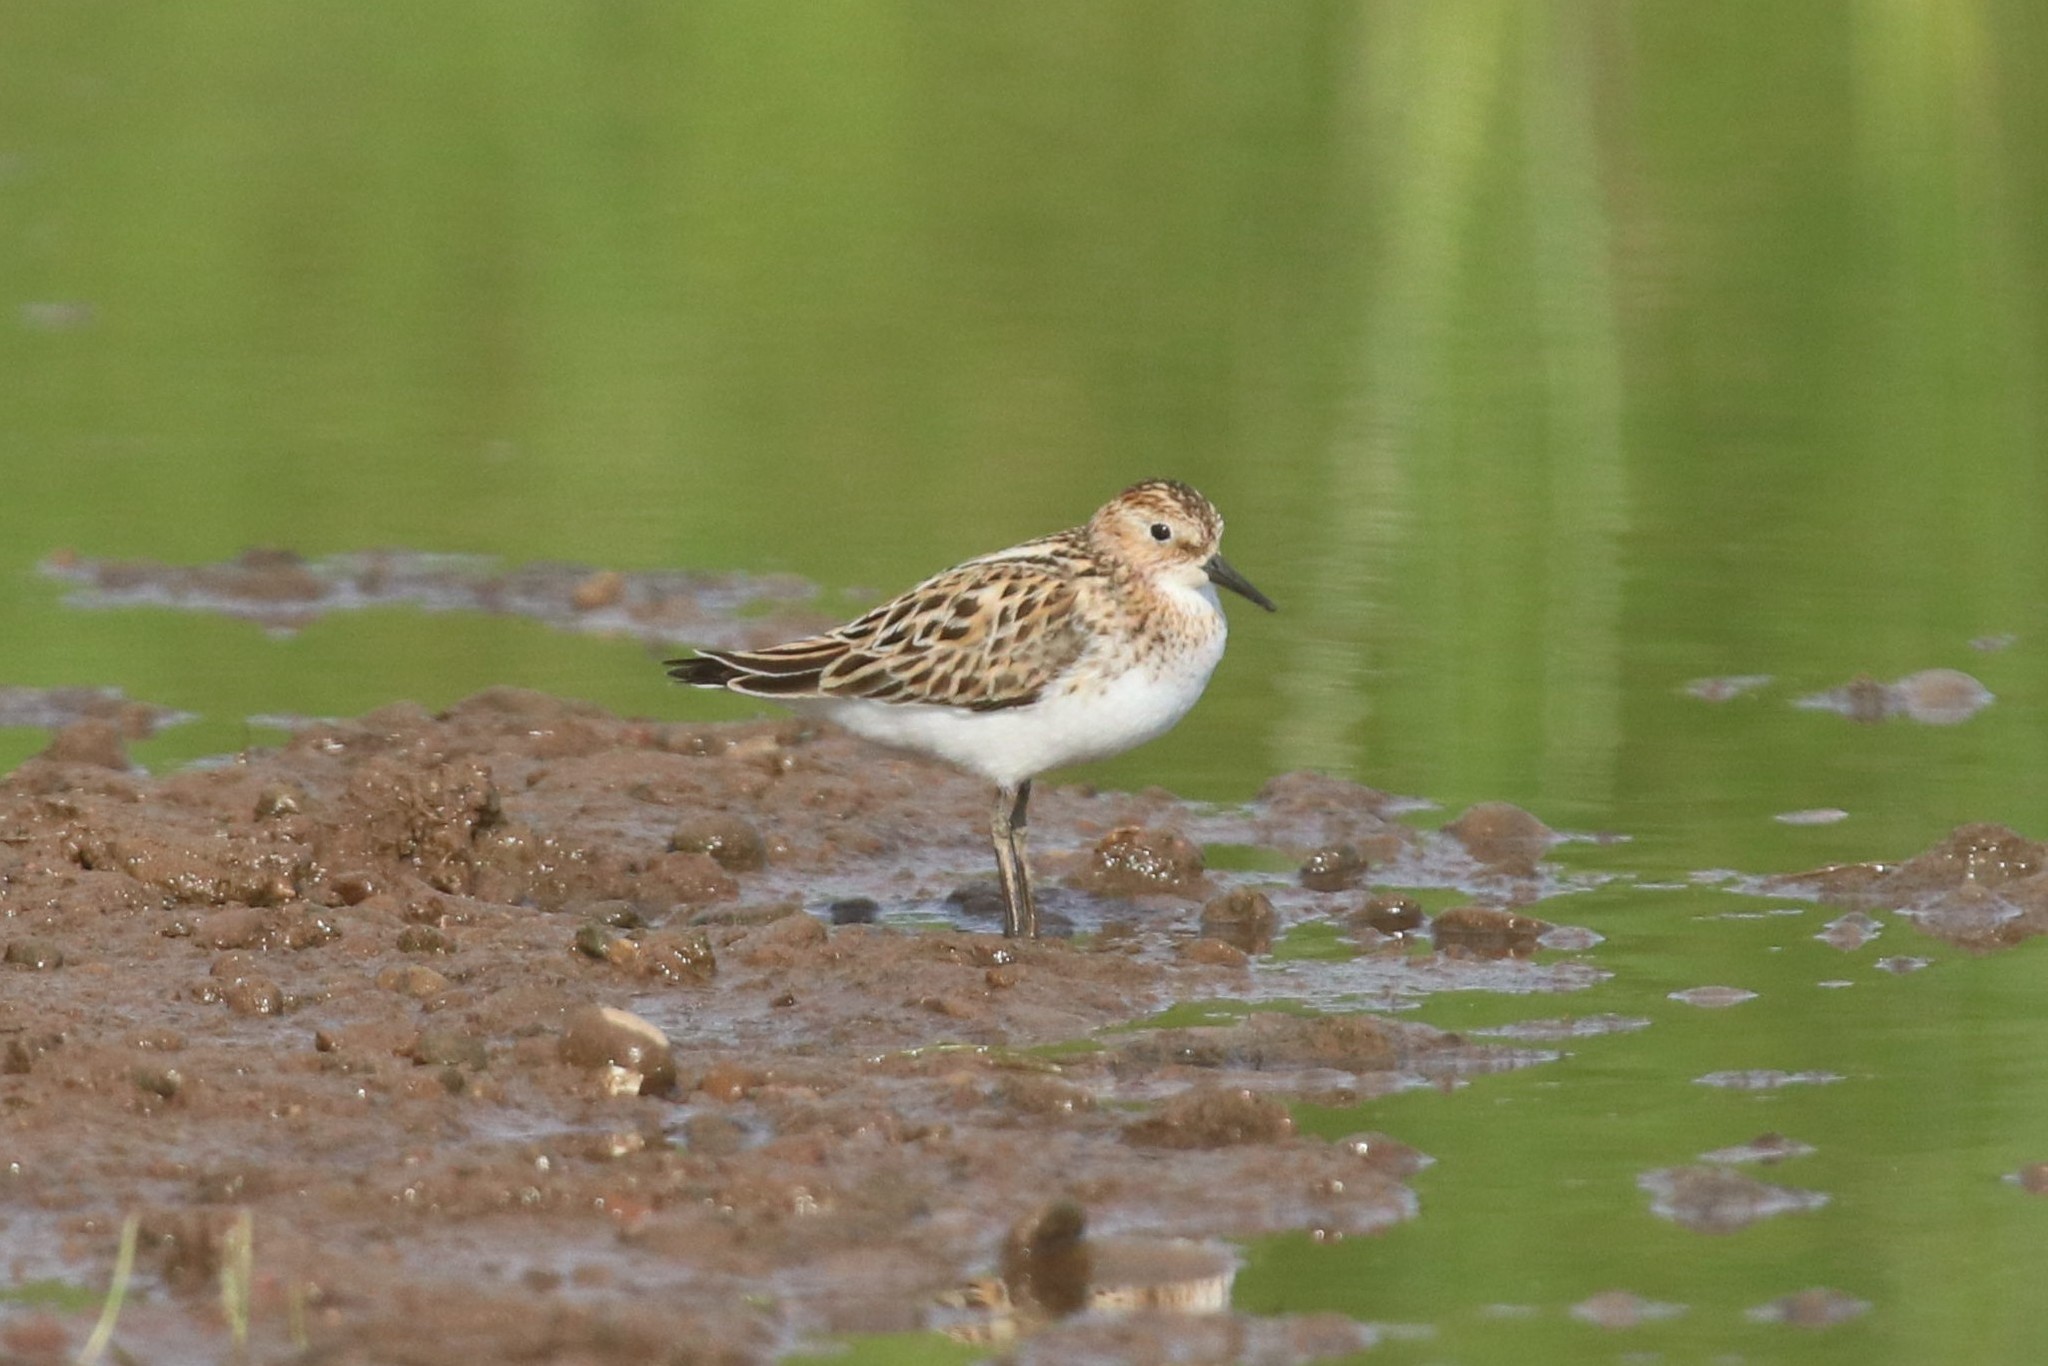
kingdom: Animalia
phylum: Chordata
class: Aves
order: Charadriiformes
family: Scolopacidae
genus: Calidris
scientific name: Calidris minuta
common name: Little stint
